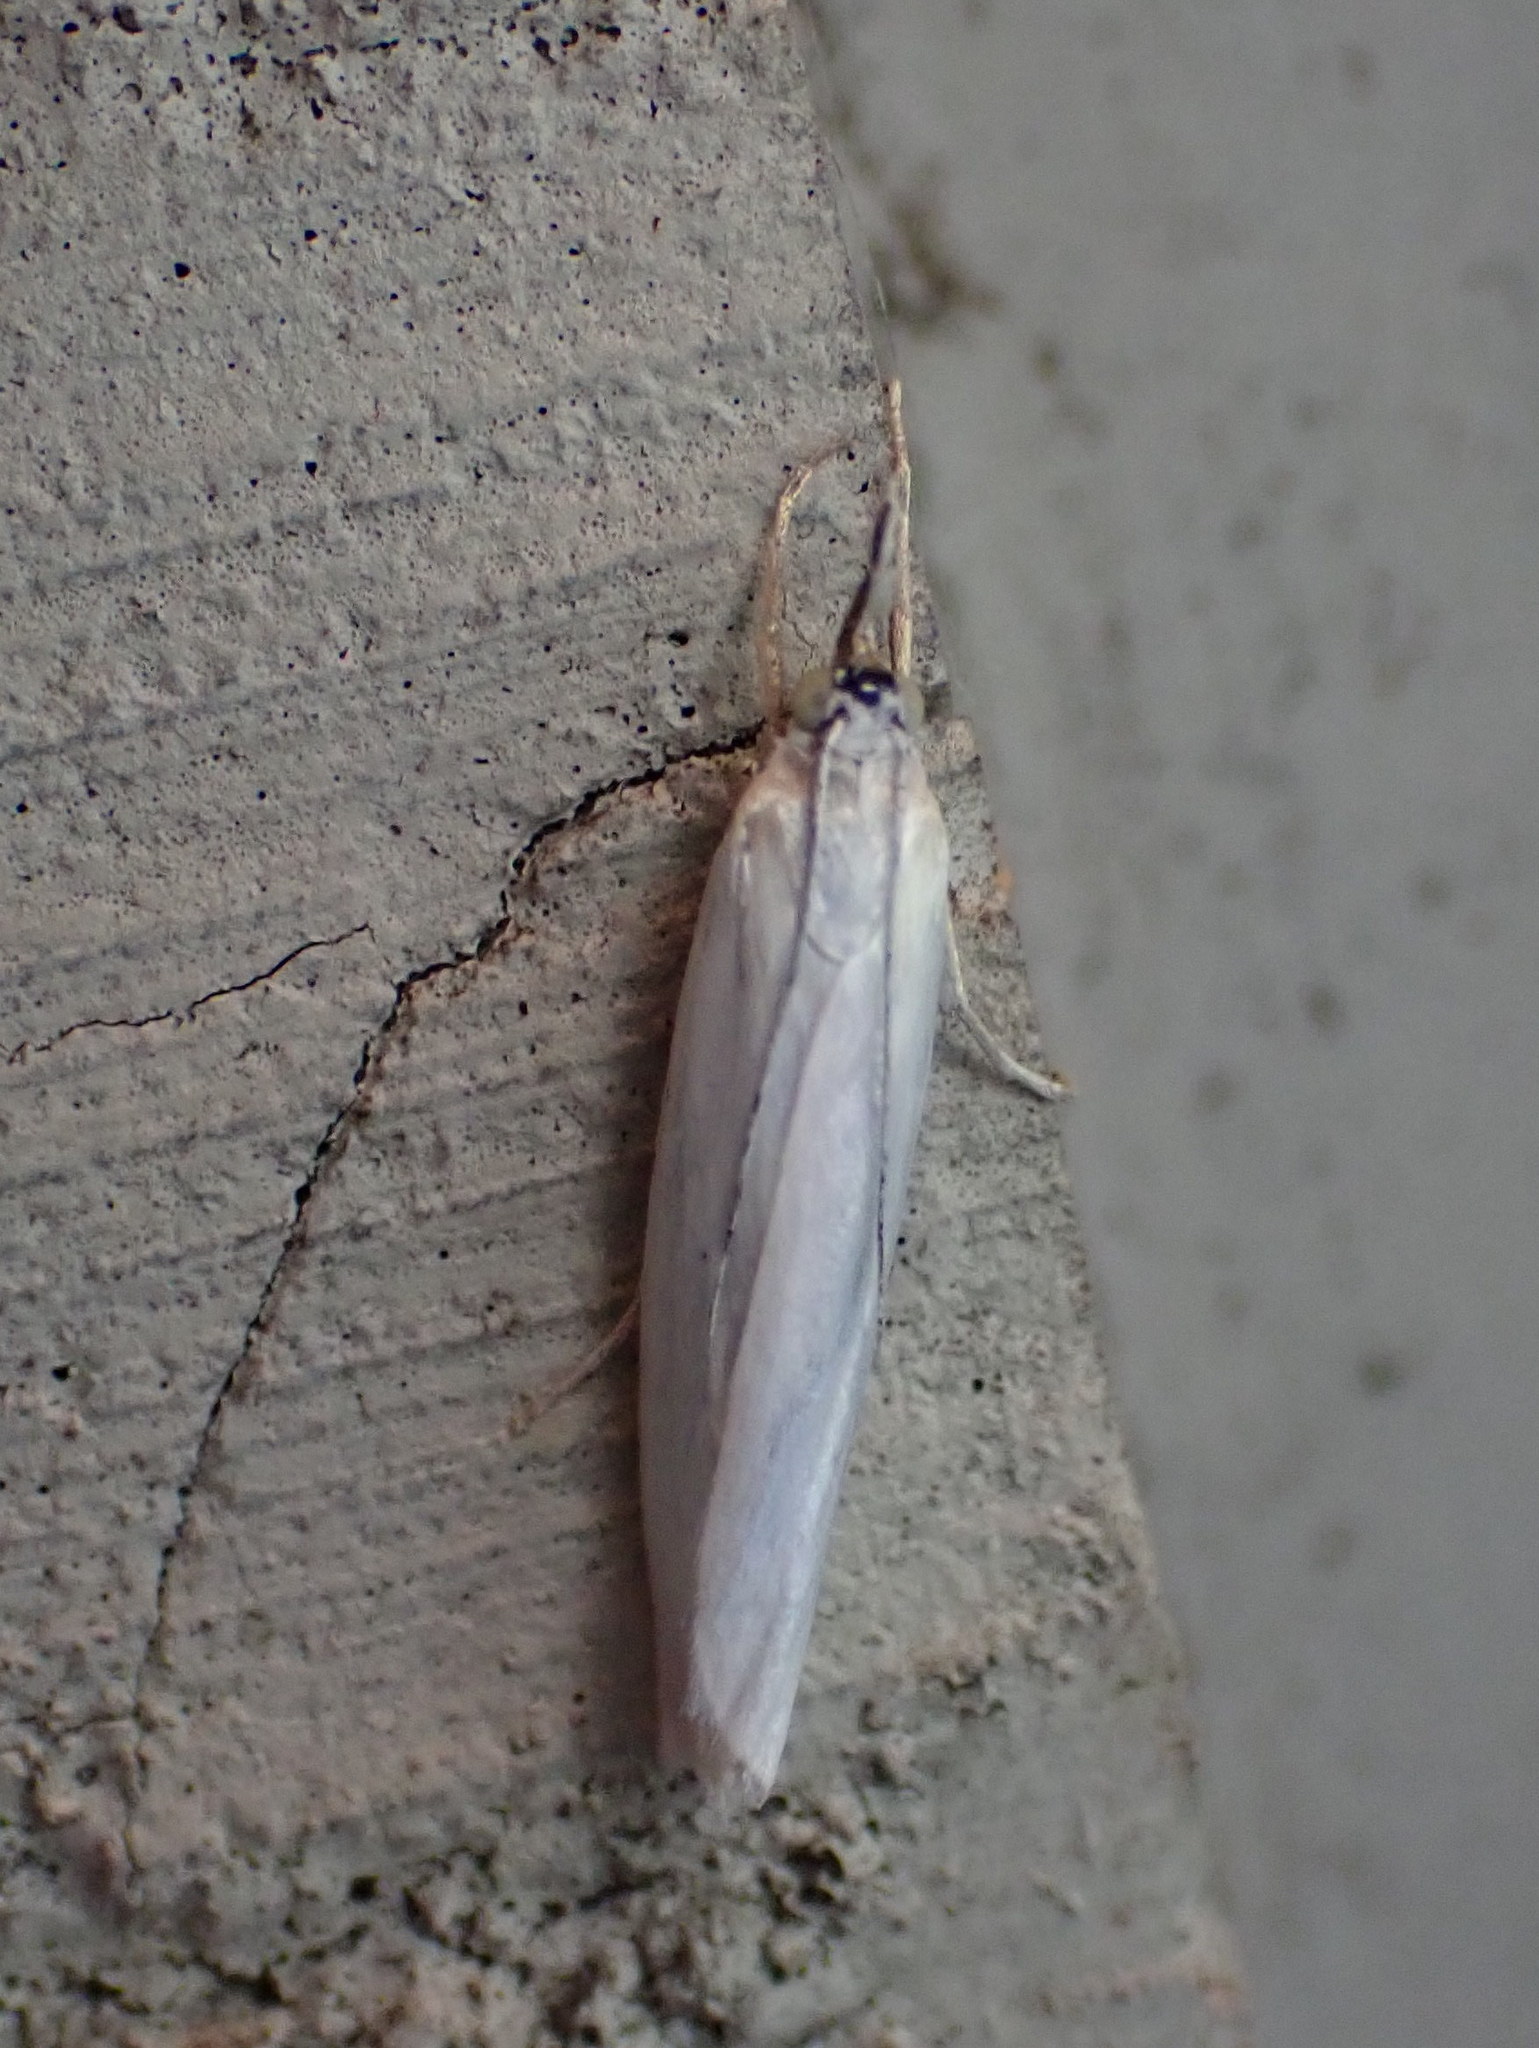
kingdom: Animalia
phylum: Arthropoda
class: Insecta
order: Lepidoptera
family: Crambidae
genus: Crambus
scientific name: Crambus perlellus
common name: Yellow satin veneer
